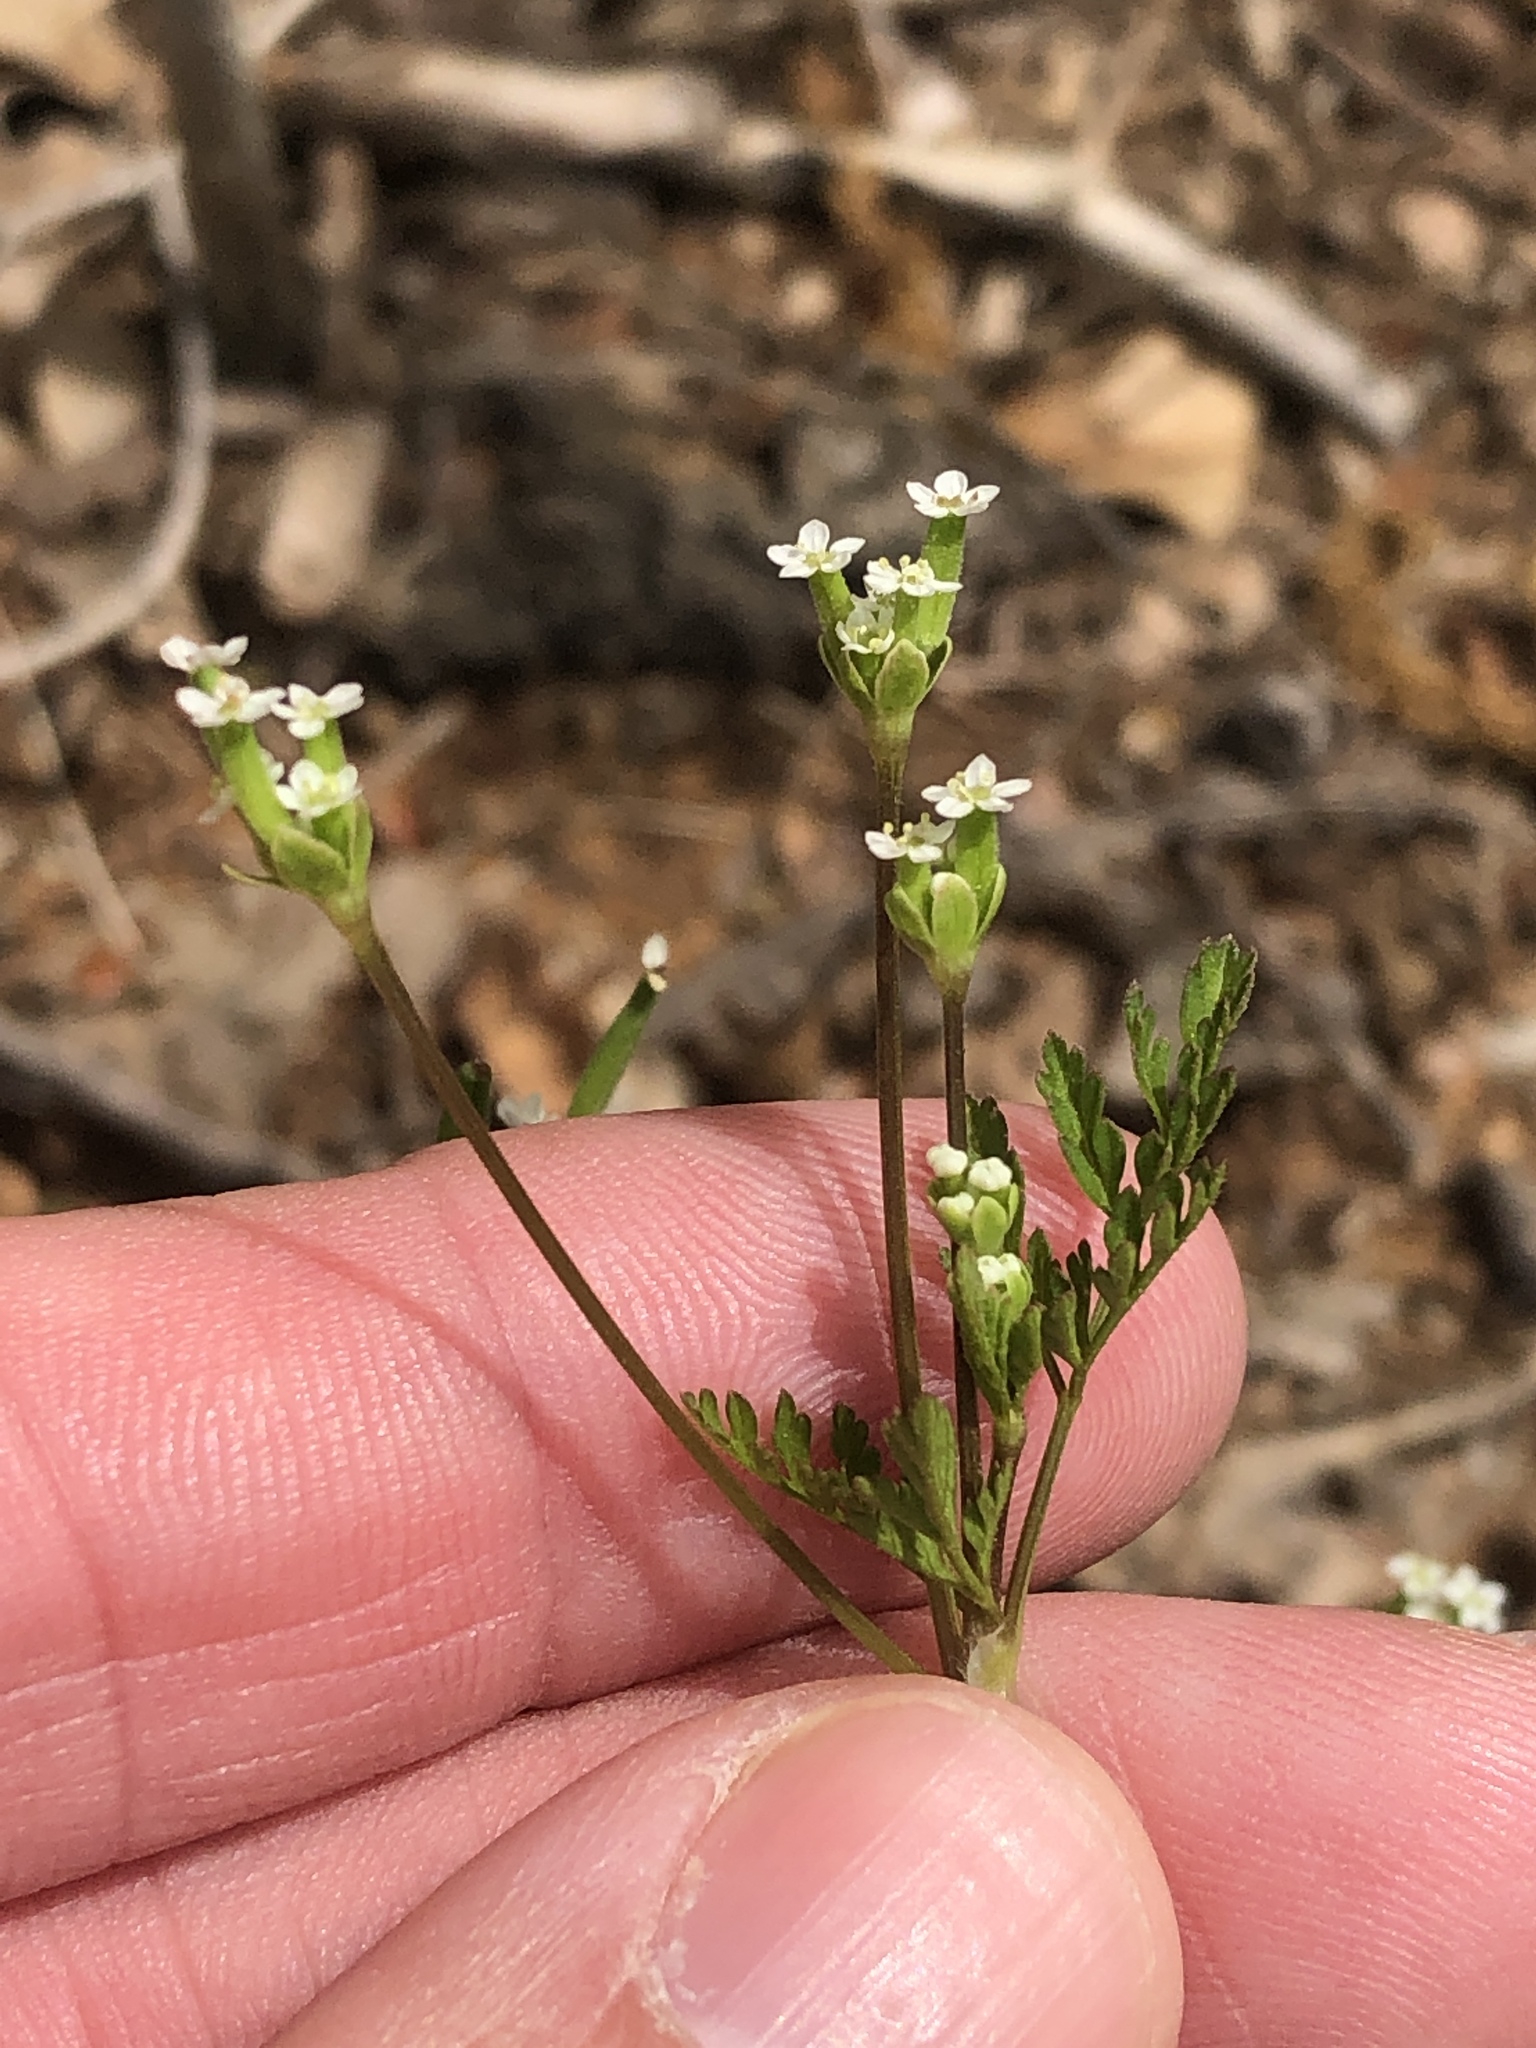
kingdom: Plantae
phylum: Tracheophyta
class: Magnoliopsida
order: Apiales
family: Apiaceae
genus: Chaerophyllum
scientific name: Chaerophyllum tainturieri
